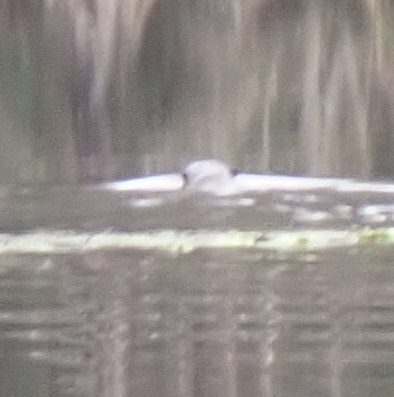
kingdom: Animalia
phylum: Chordata
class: Mammalia
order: Carnivora
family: Mustelidae
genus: Lontra
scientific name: Lontra canadensis
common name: North american river otter
